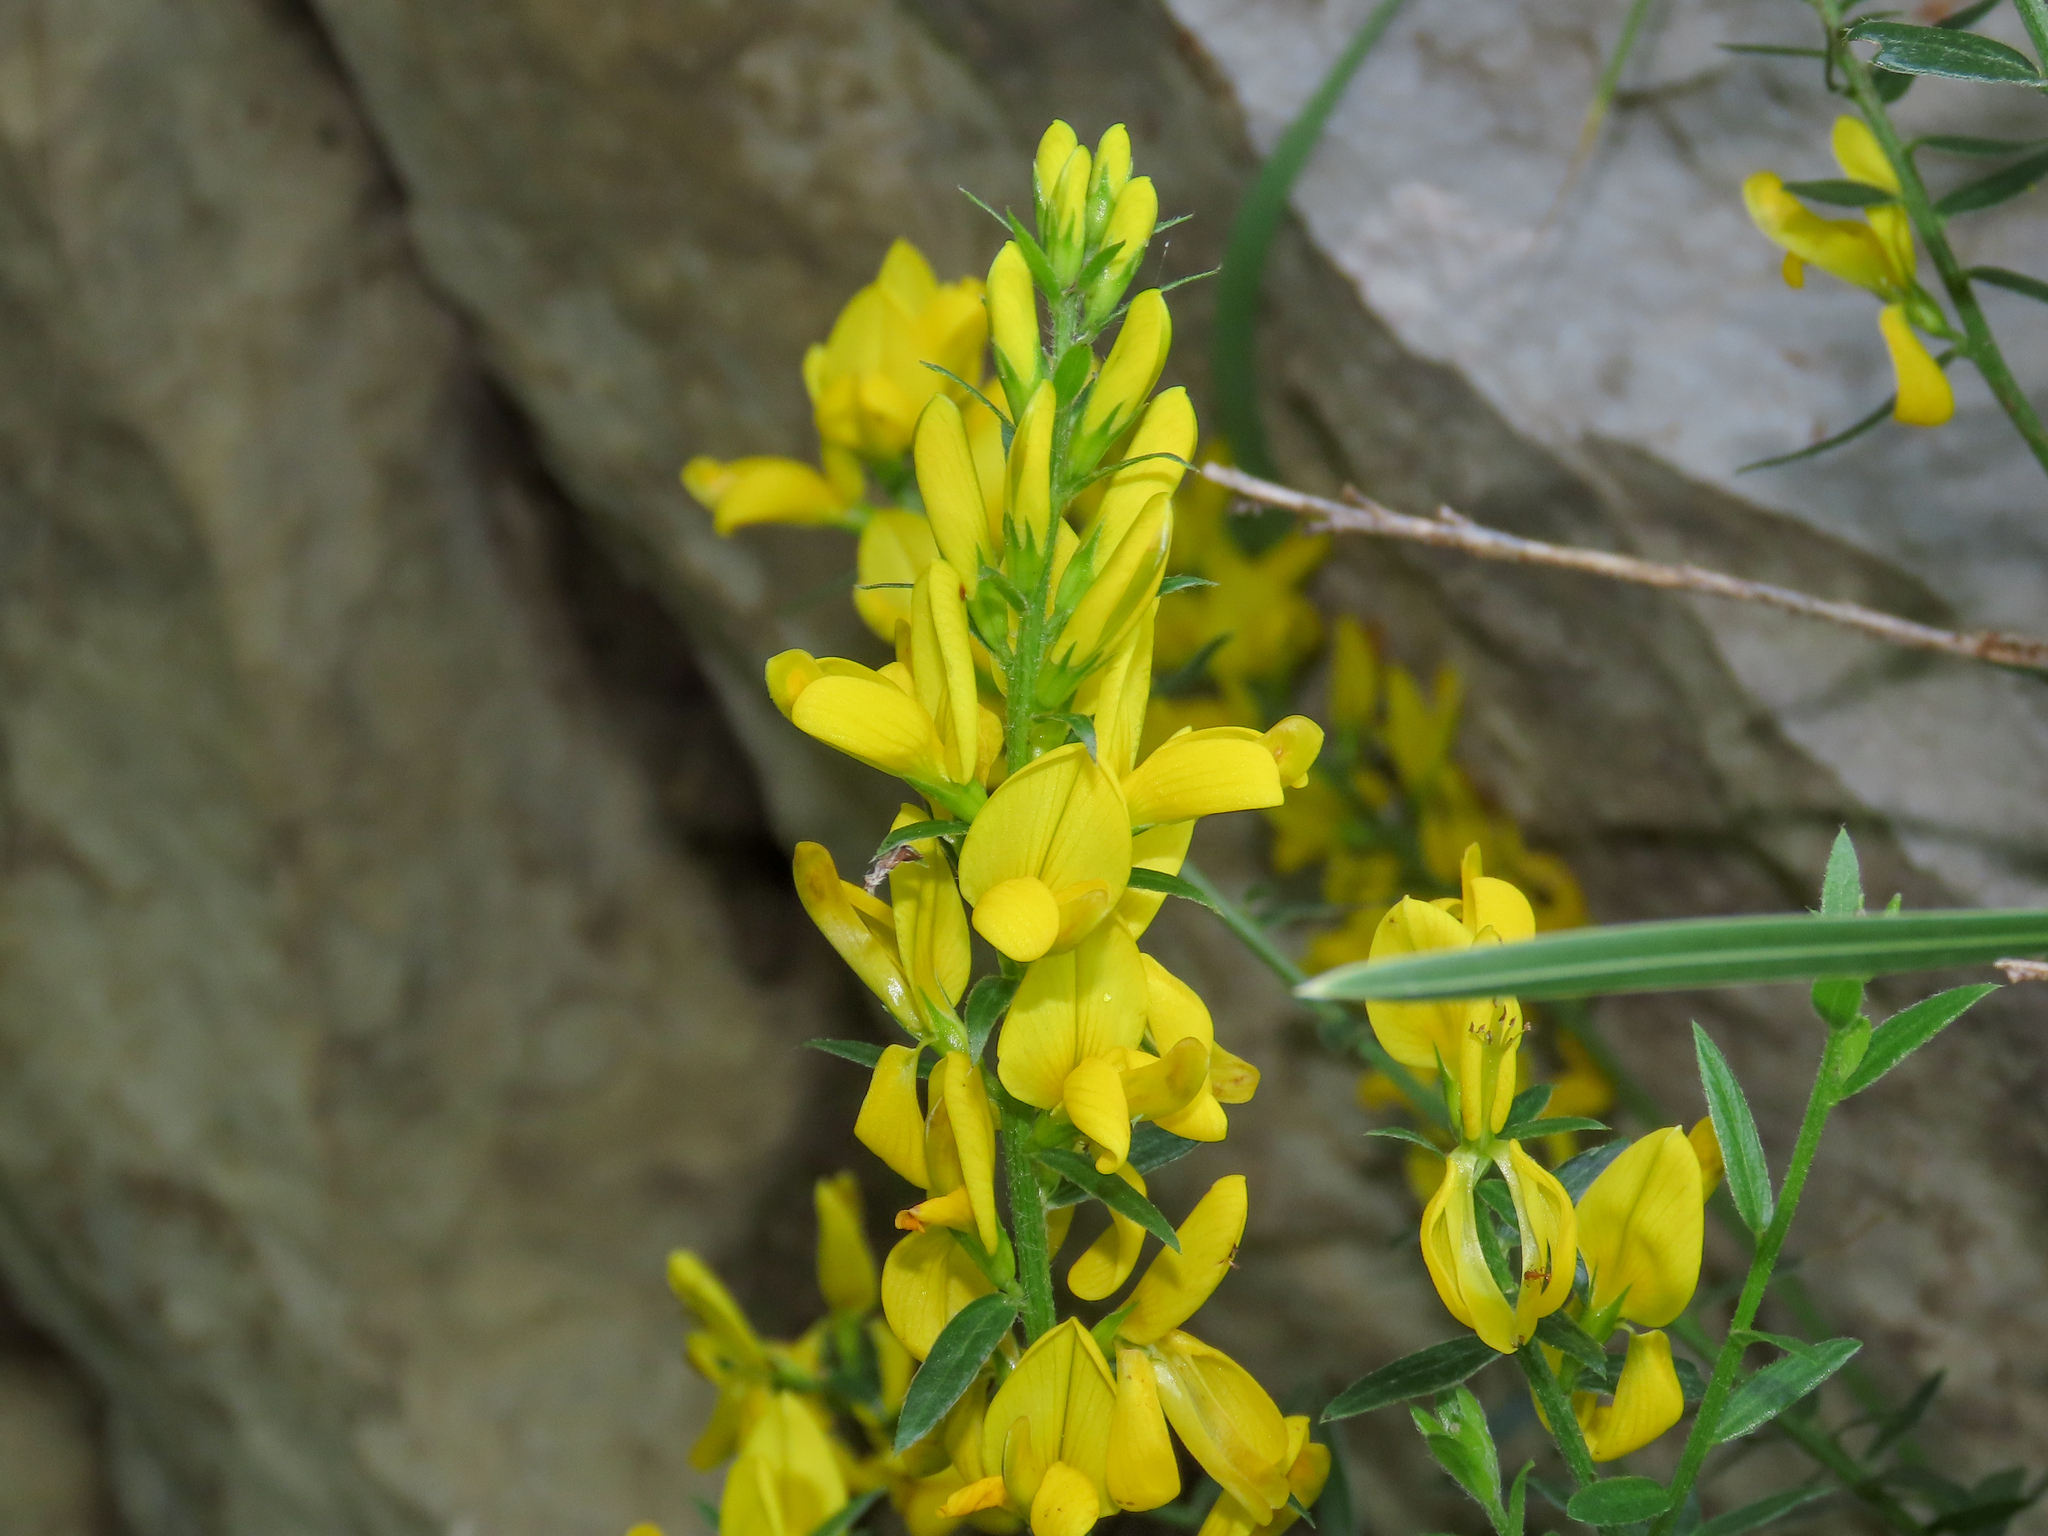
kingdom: Plantae
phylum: Tracheophyta
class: Magnoliopsida
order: Fabales
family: Fabaceae
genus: Genista
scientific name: Genista tinctoria
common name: Dyer's greenweed
